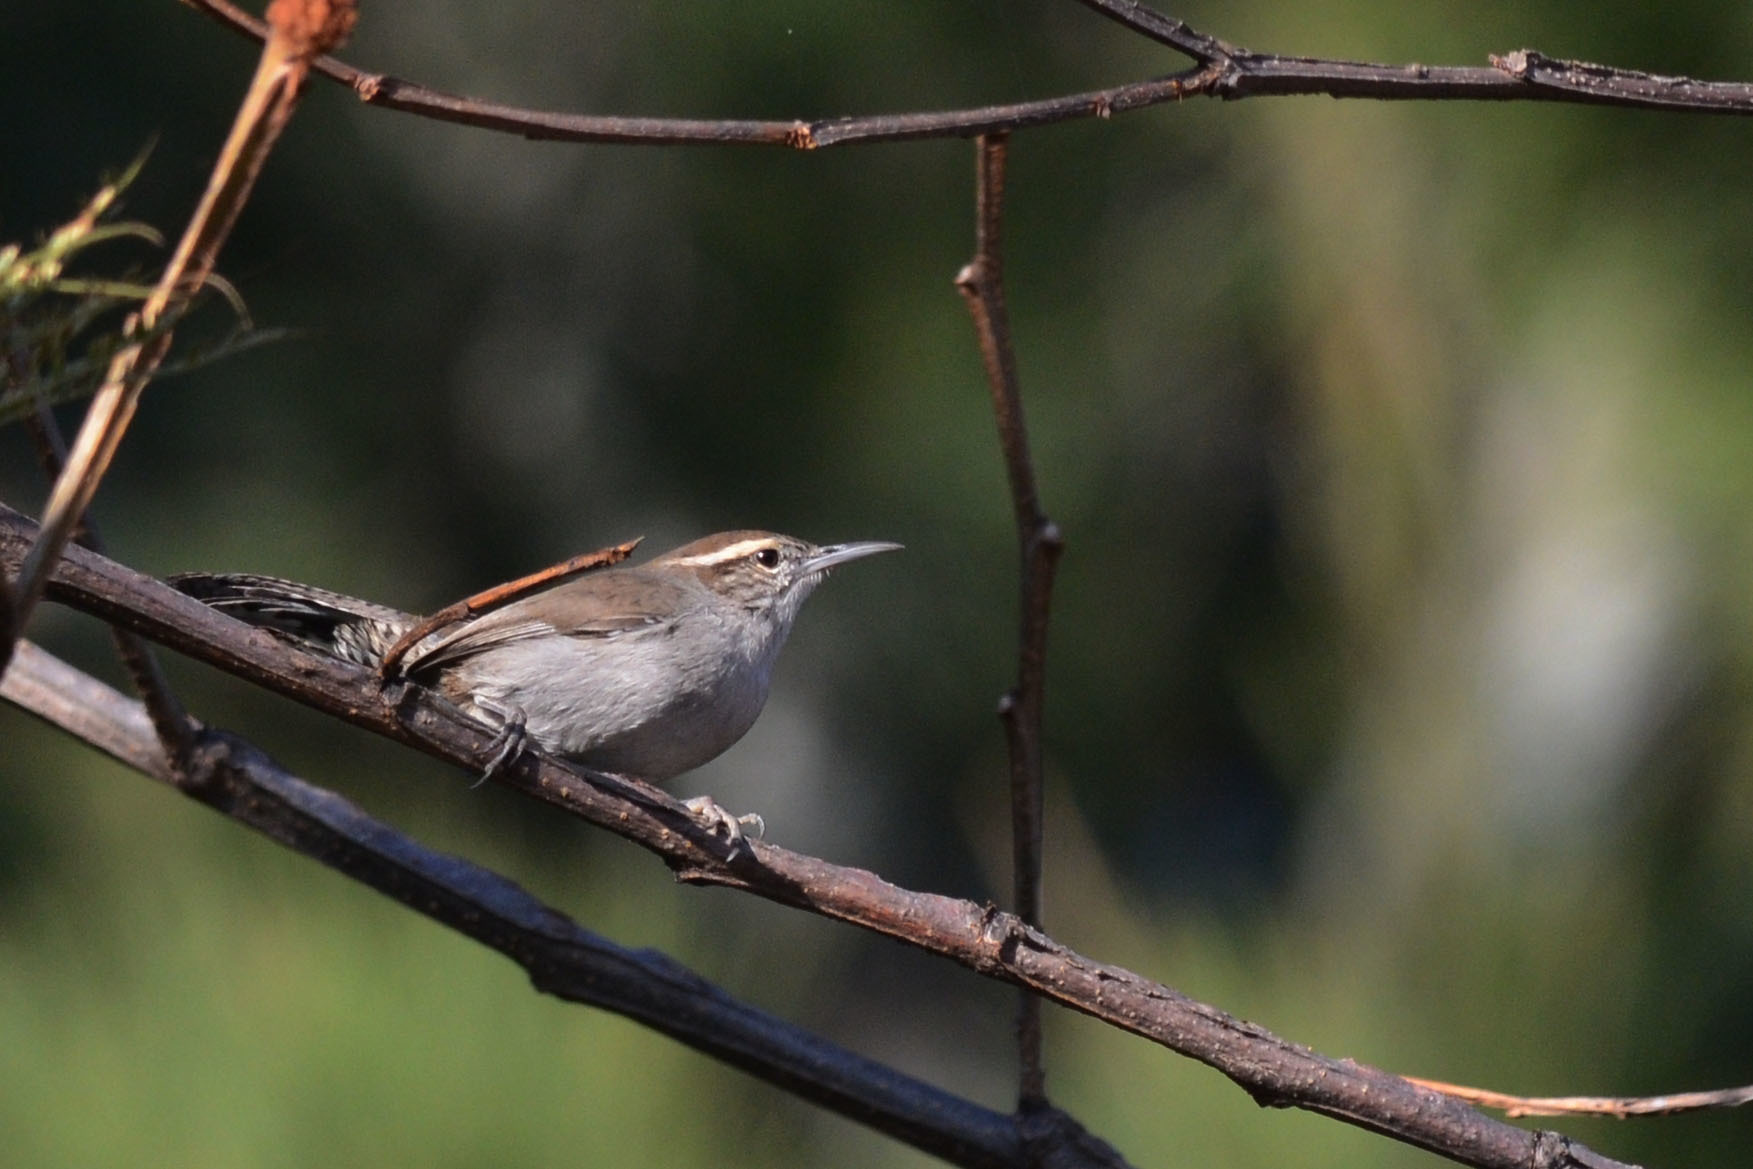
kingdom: Animalia
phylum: Chordata
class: Aves
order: Passeriformes
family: Troglodytidae
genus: Thryomanes
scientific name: Thryomanes bewickii
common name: Bewick's wren
